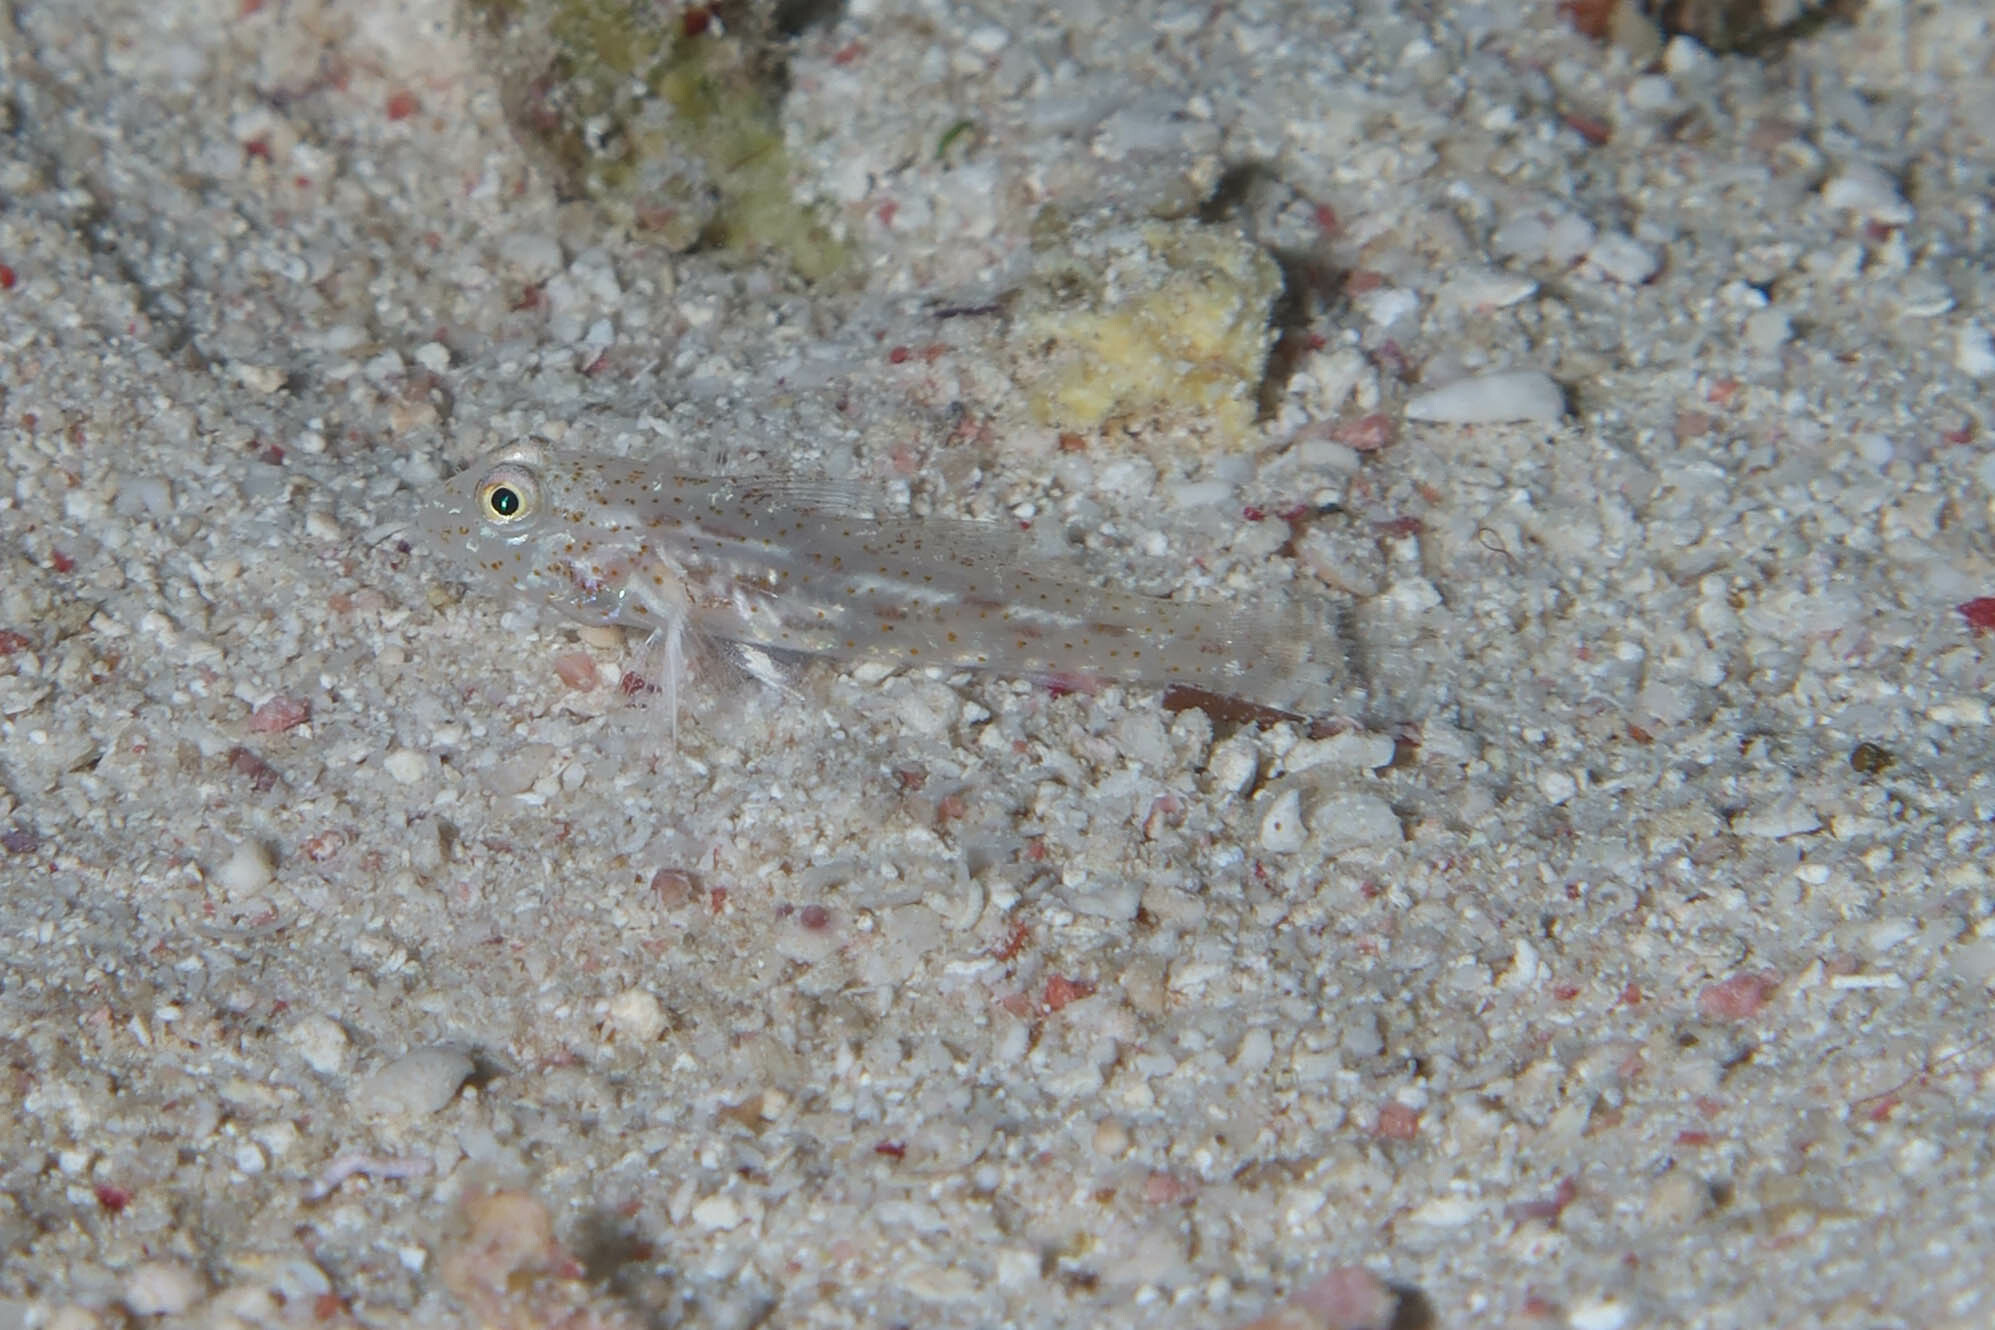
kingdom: Animalia
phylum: Chordata
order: Perciformes
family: Gobiidae
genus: Fusigobius
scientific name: Fusigobius humerosus
